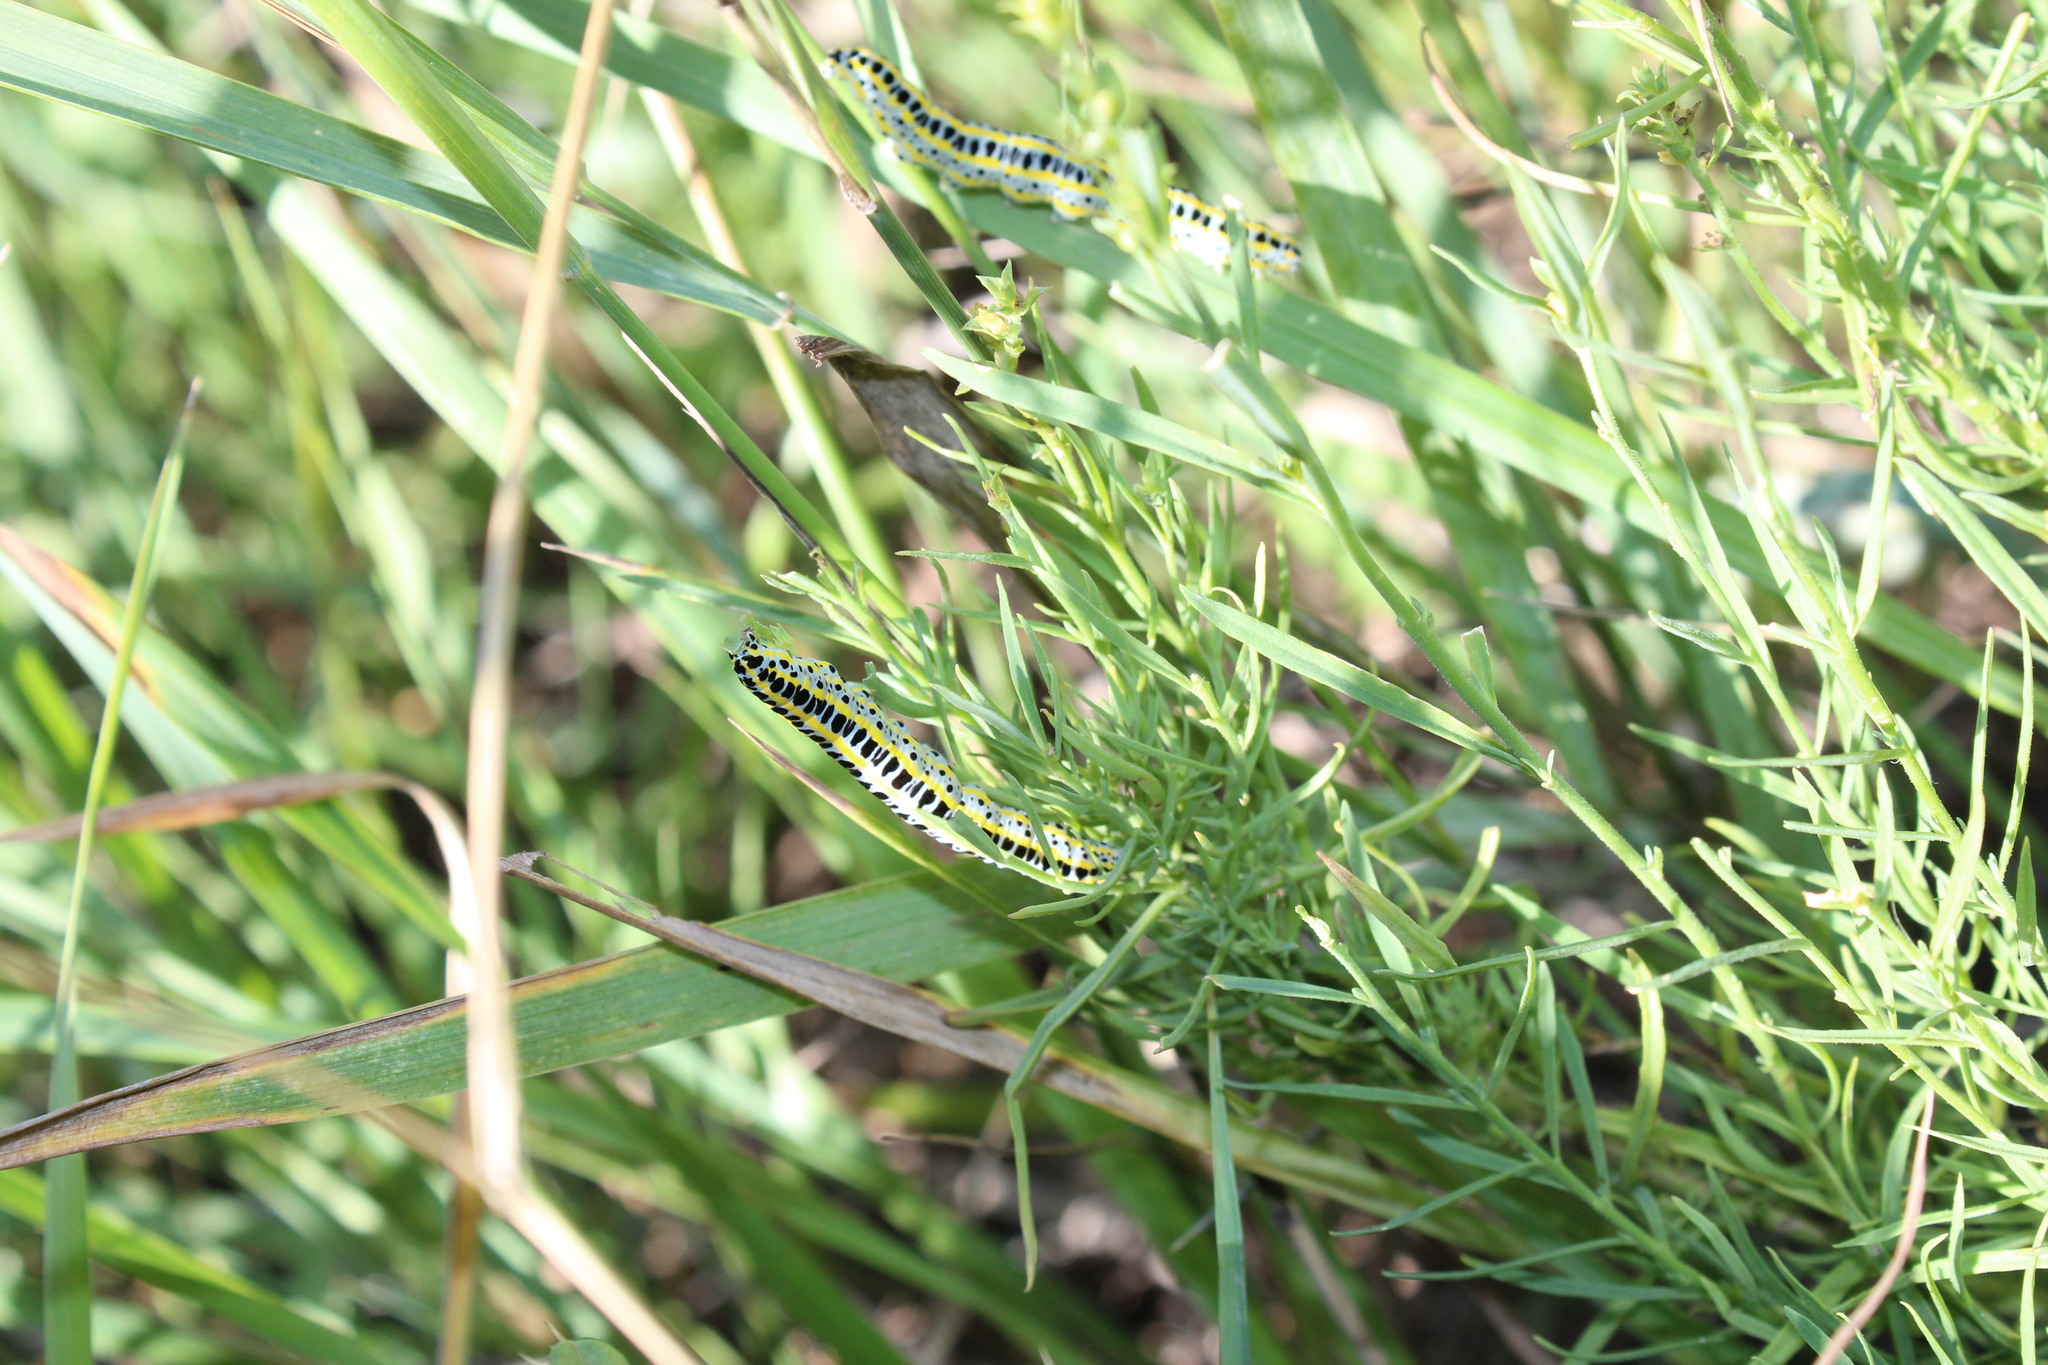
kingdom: Animalia
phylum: Arthropoda
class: Insecta
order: Lepidoptera
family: Noctuidae
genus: Calophasia
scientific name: Calophasia lunula
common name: Toadflax brocade
